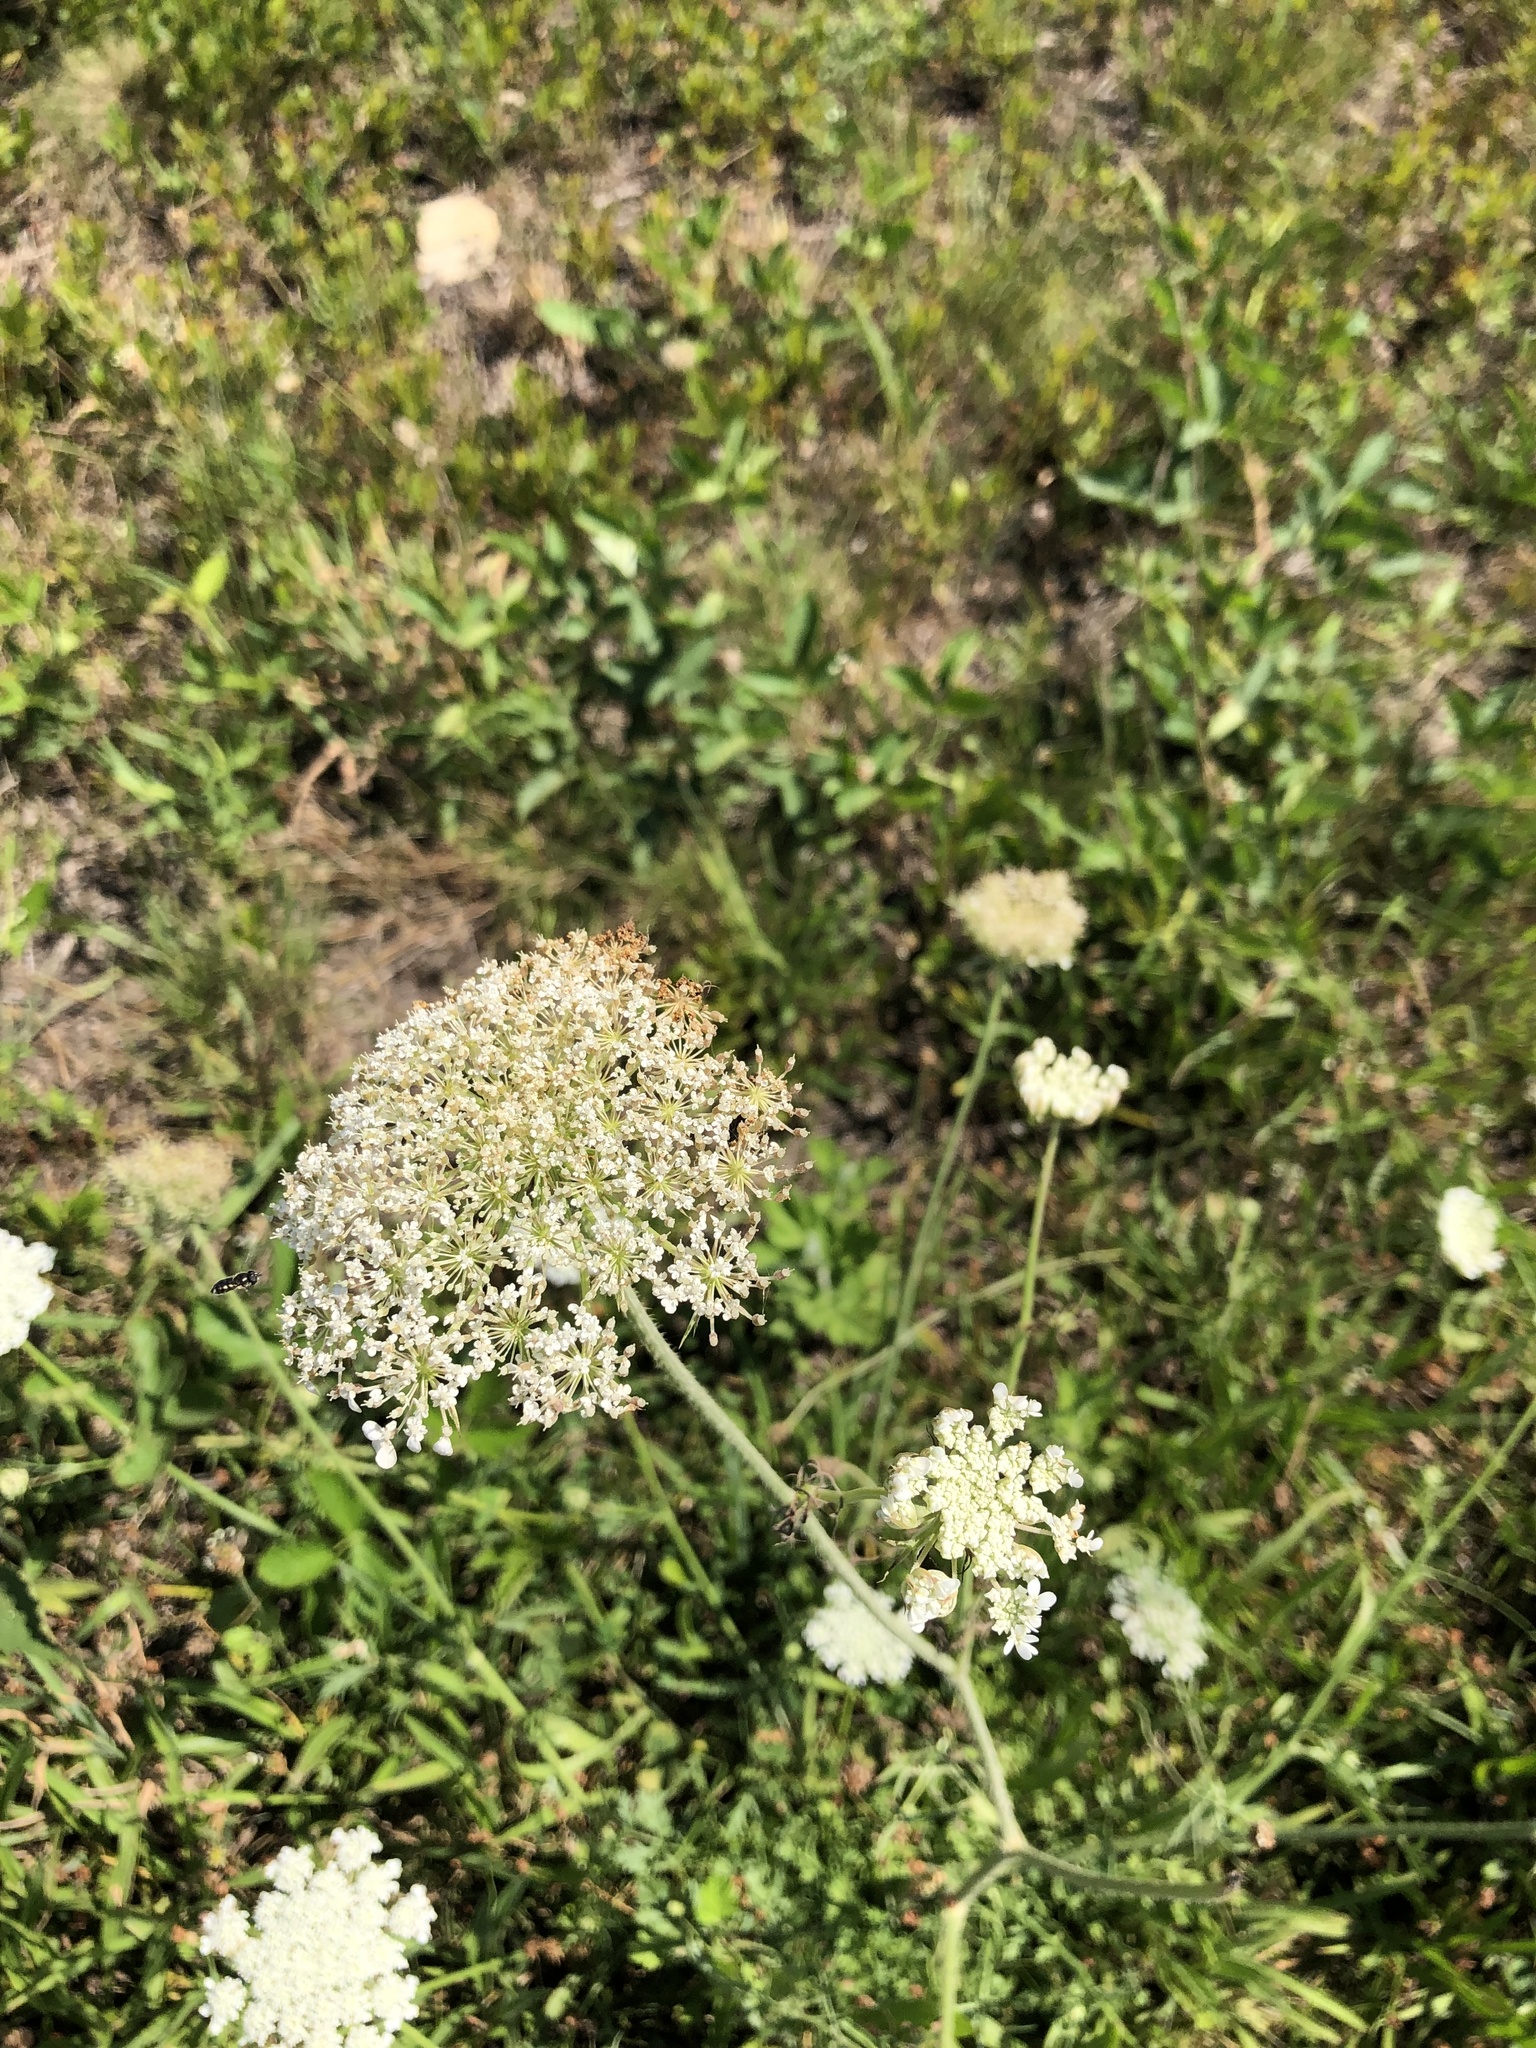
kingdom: Plantae
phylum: Tracheophyta
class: Magnoliopsida
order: Apiales
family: Apiaceae
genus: Daucus
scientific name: Daucus carota
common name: Wild carrot
